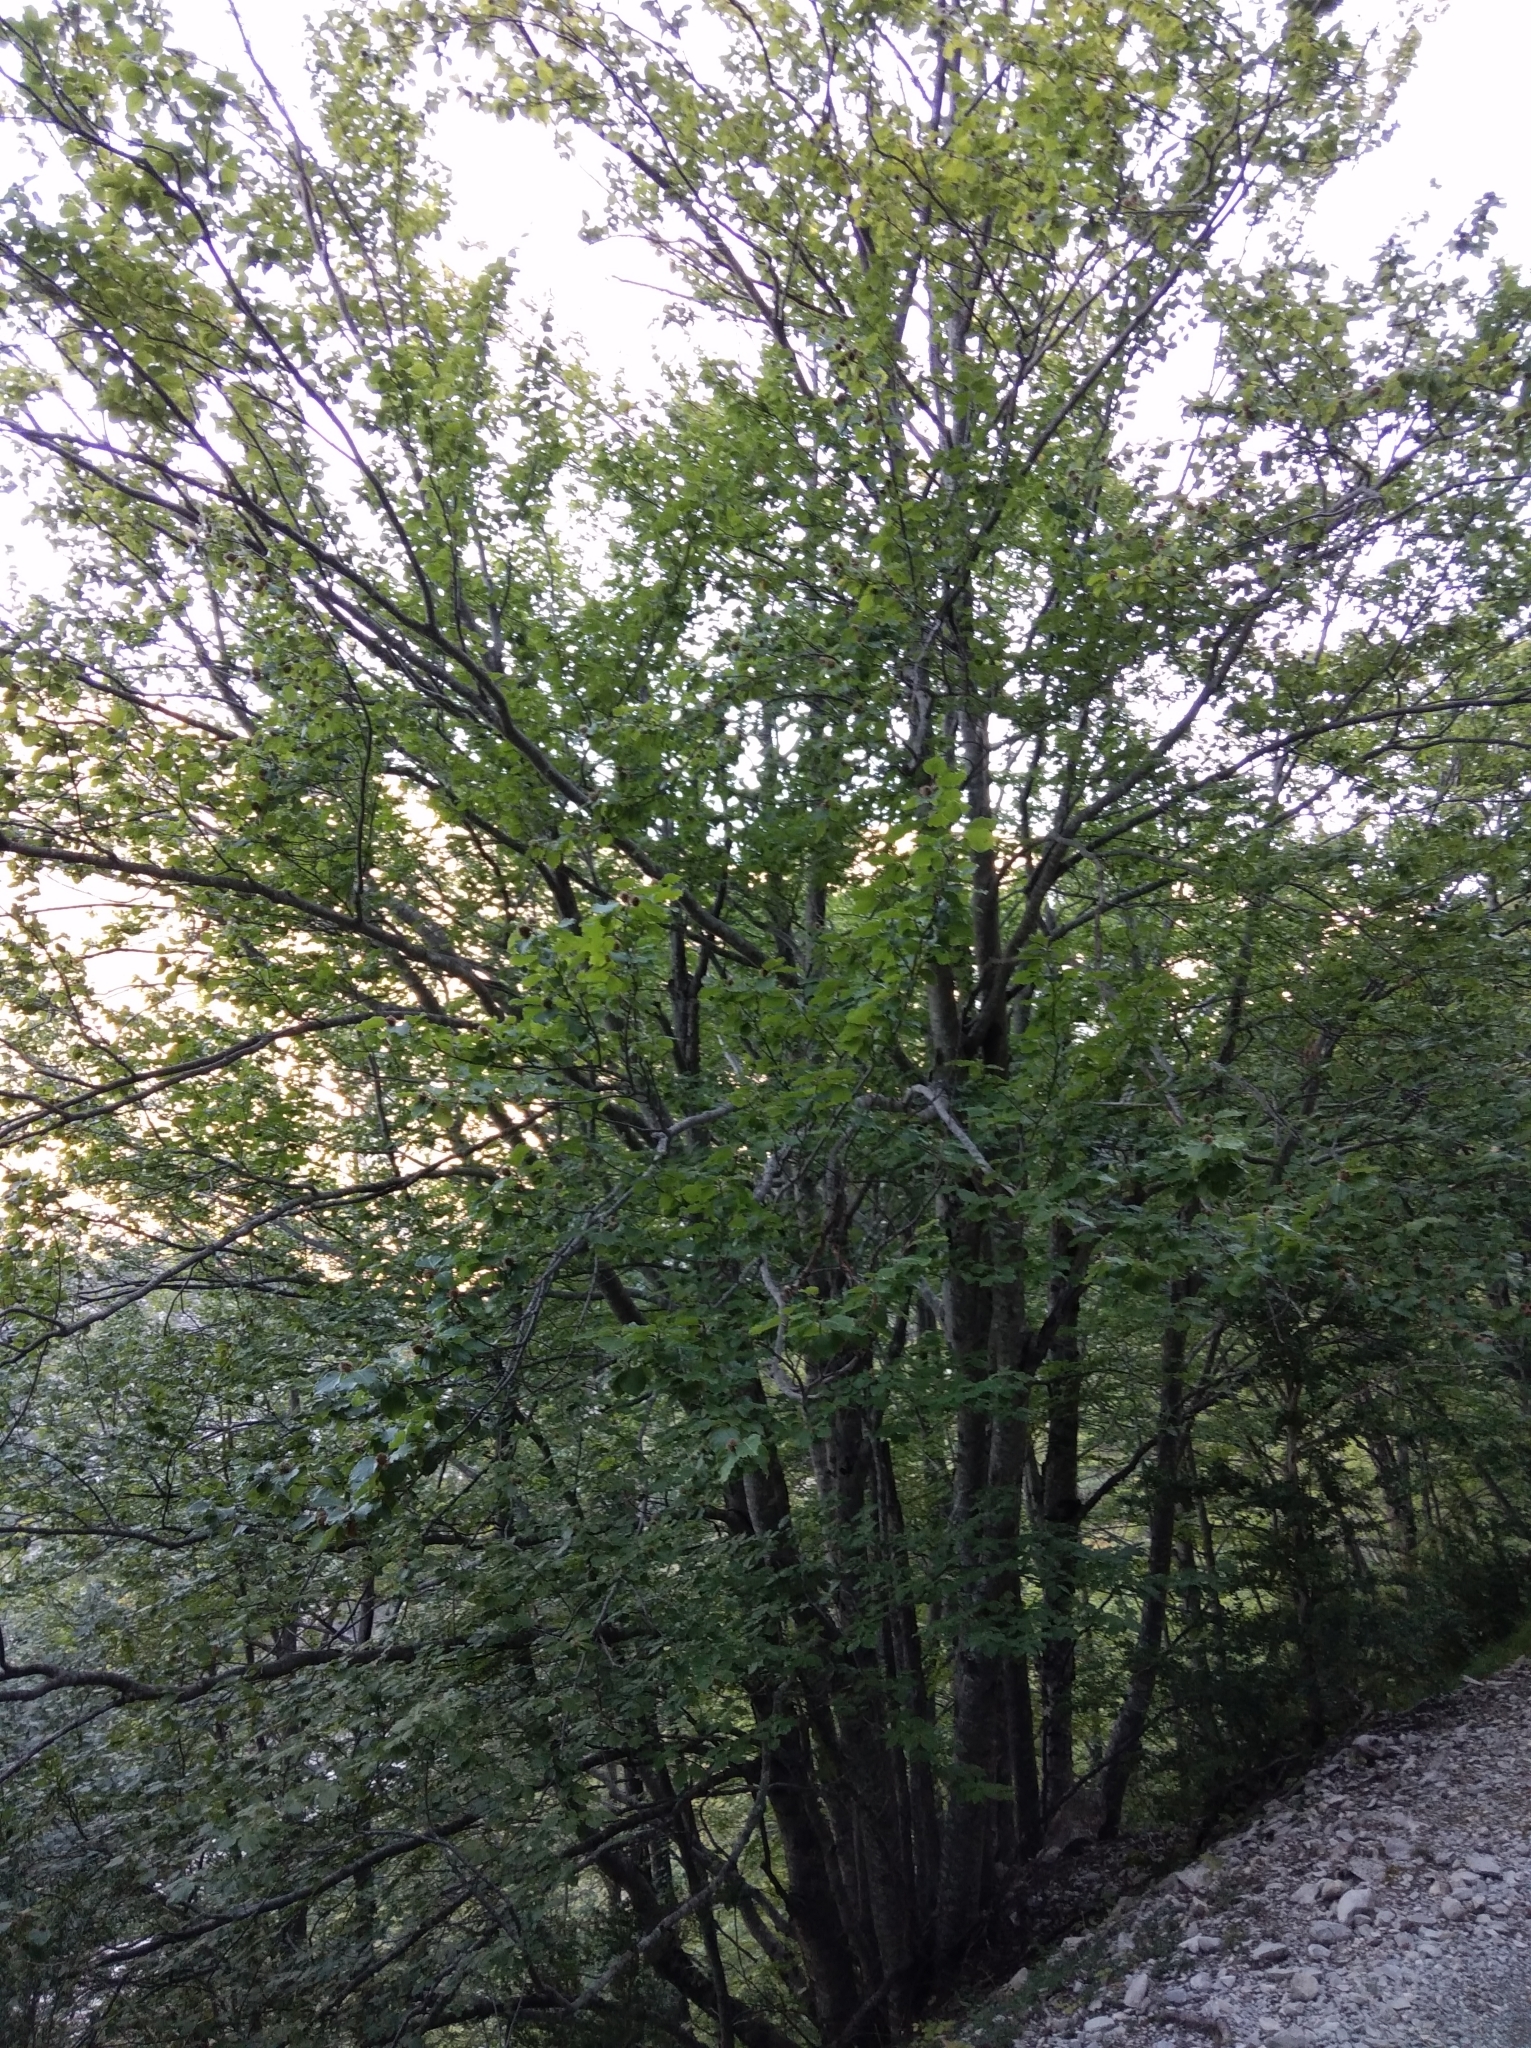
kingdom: Plantae
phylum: Tracheophyta
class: Magnoliopsida
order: Fagales
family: Fagaceae
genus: Fagus
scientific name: Fagus sylvatica
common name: Beech
